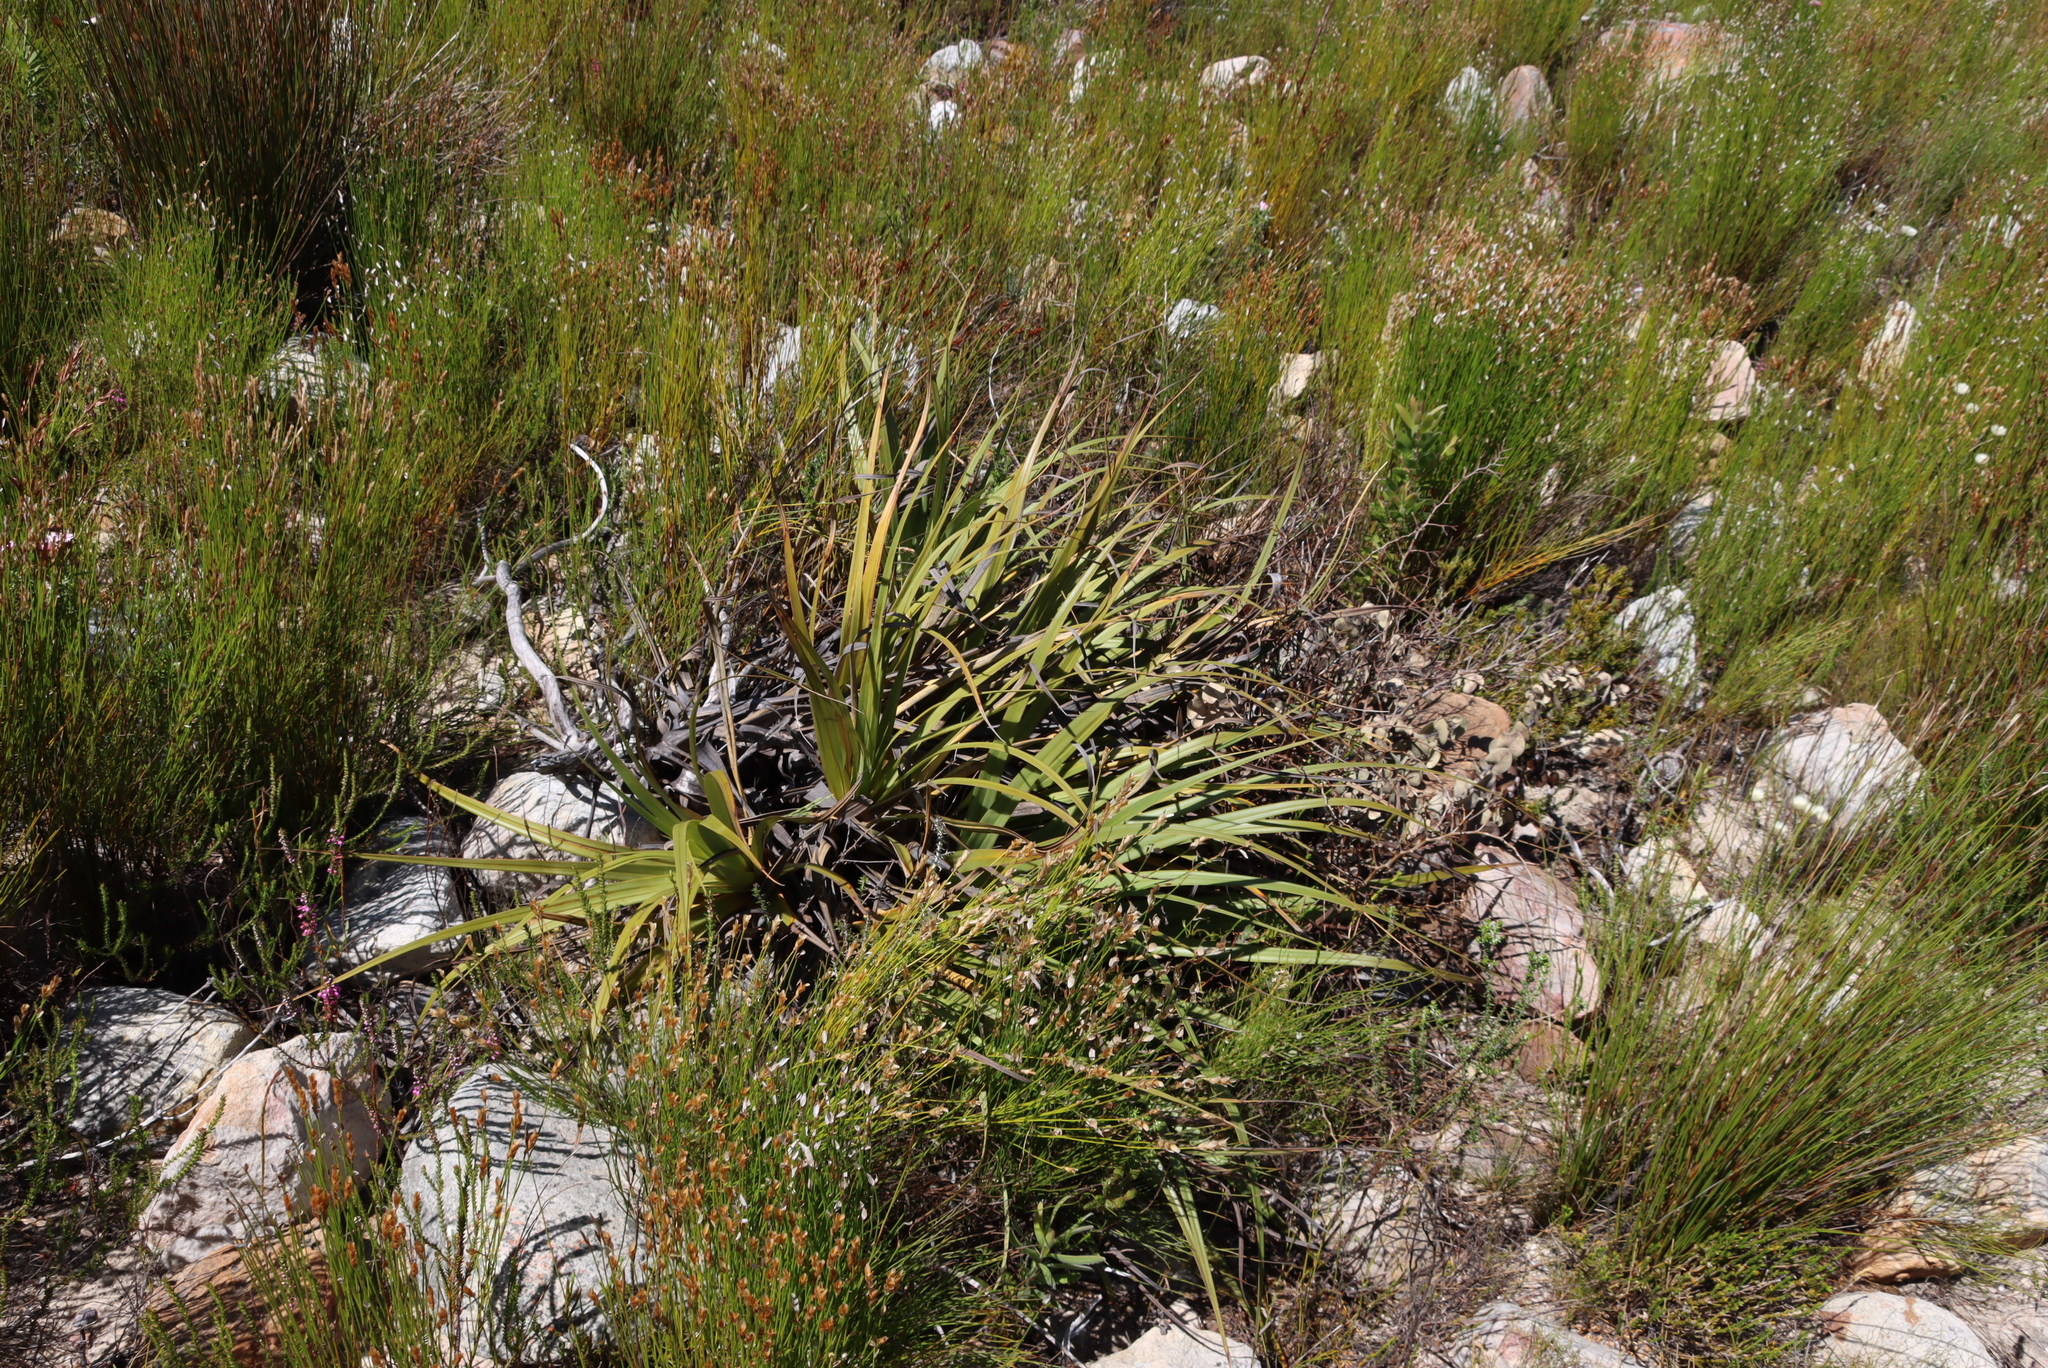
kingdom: Plantae
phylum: Tracheophyta
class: Liliopsida
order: Poales
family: Cyperaceae
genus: Tetraria
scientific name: Tetraria thermalis
